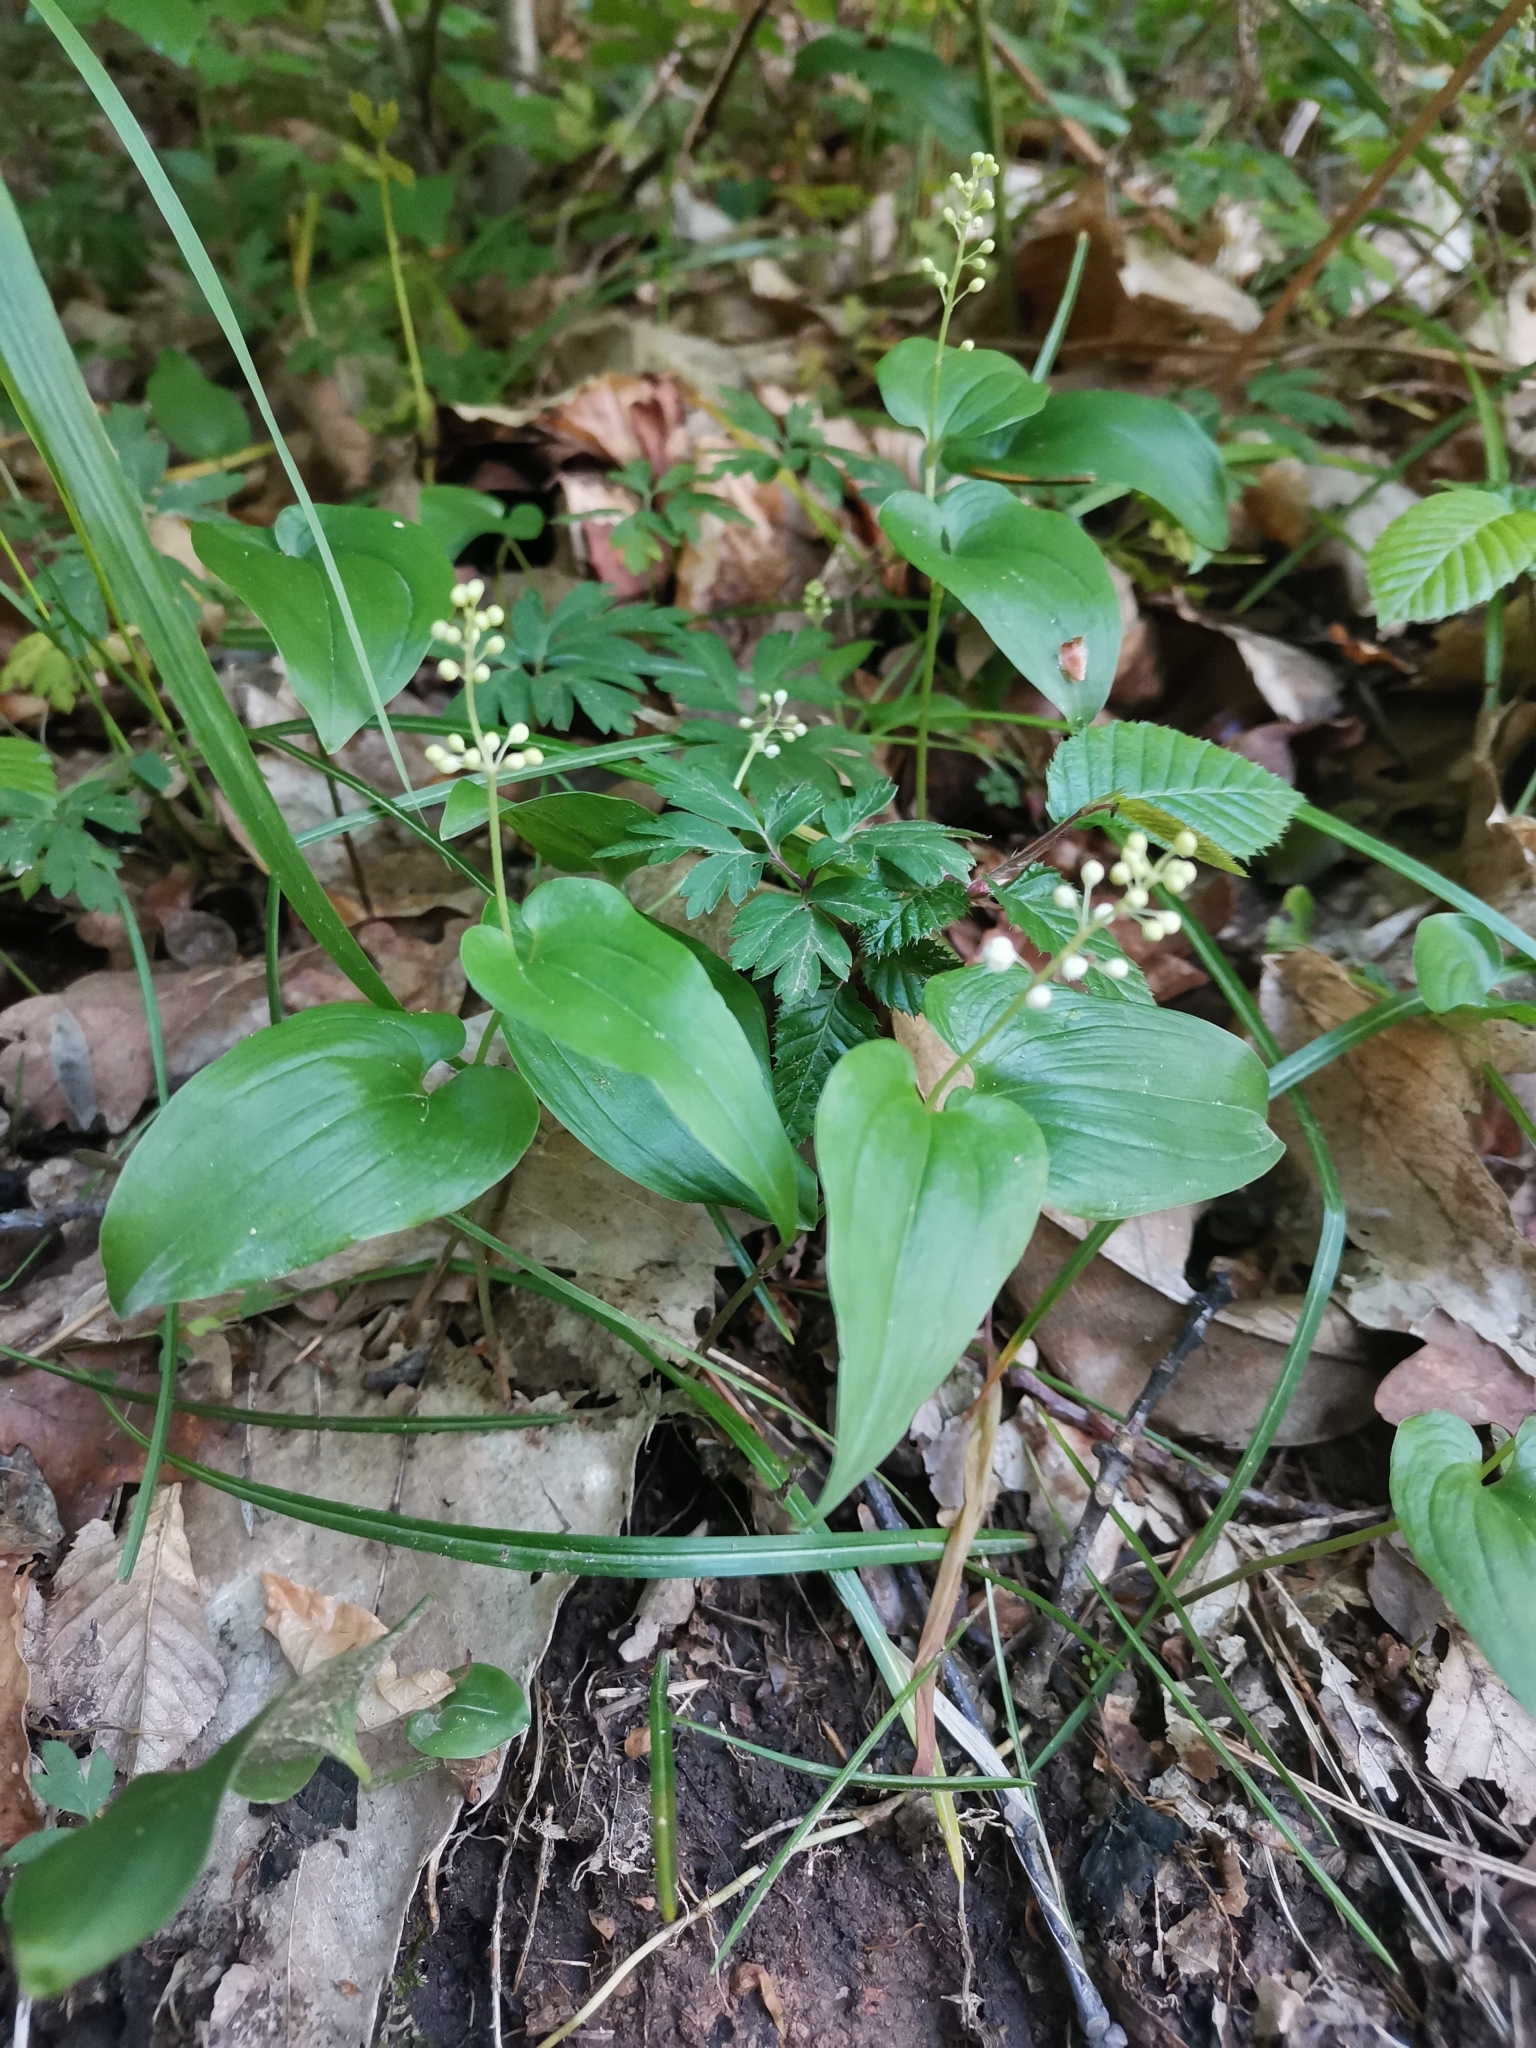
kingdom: Plantae
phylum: Tracheophyta
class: Liliopsida
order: Asparagales
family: Asparagaceae
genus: Maianthemum
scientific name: Maianthemum bifolium
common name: May lily
